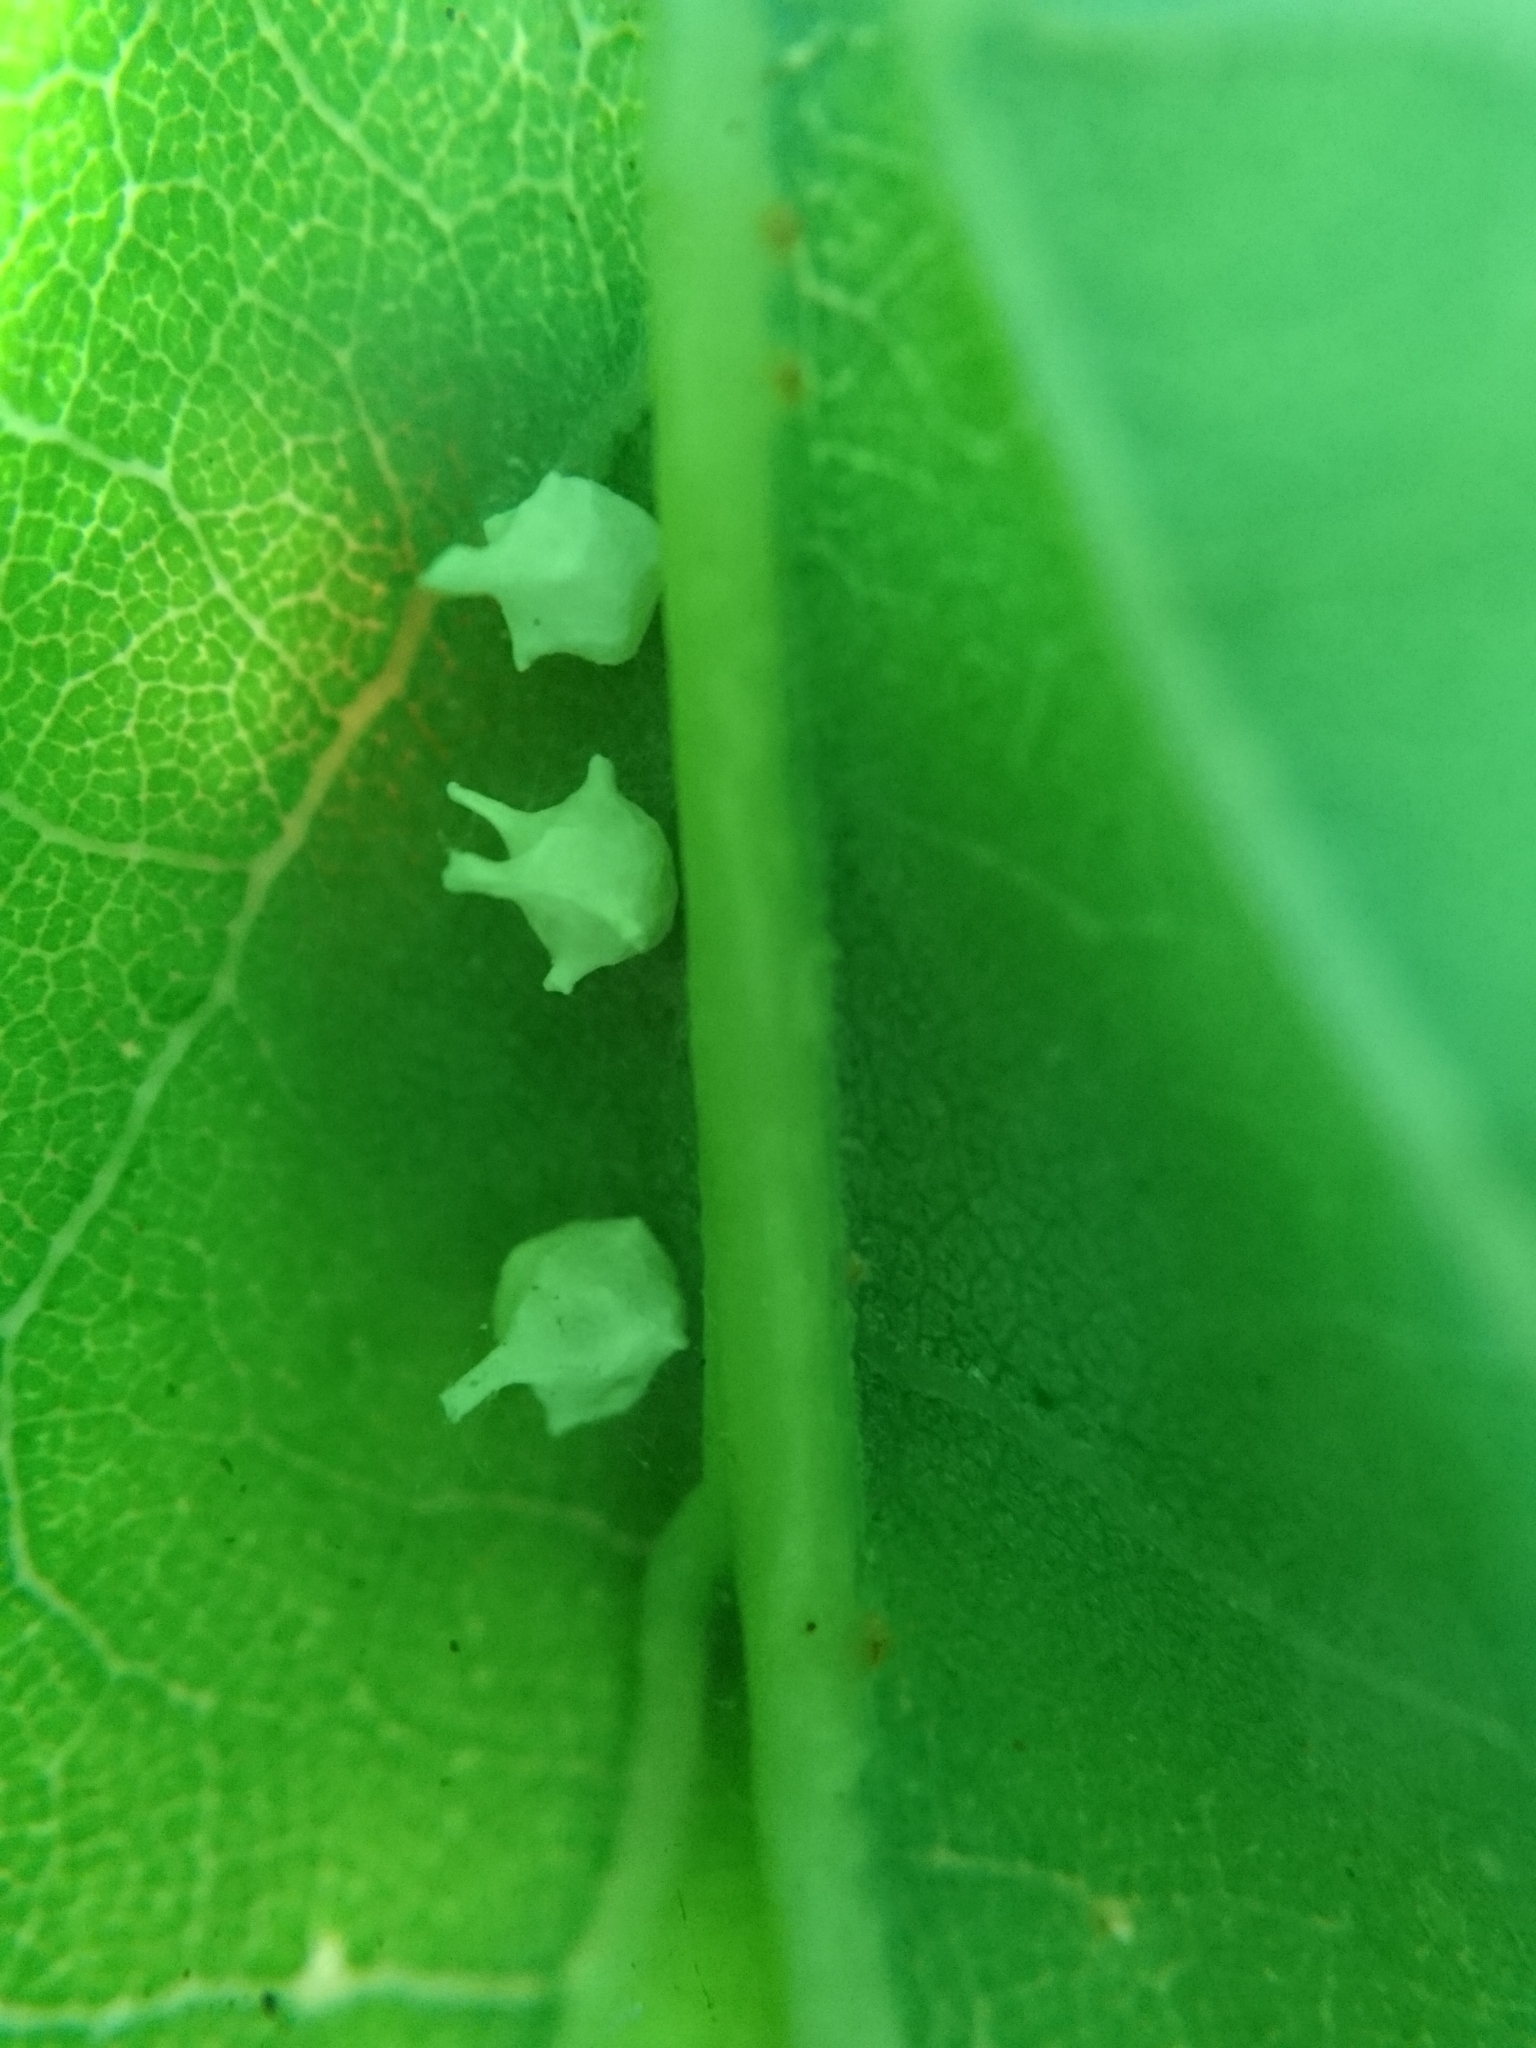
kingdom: Animalia
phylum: Arthropoda
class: Arachnida
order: Araneae
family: Theridiidae
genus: Paidiscura
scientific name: Paidiscura pallens
